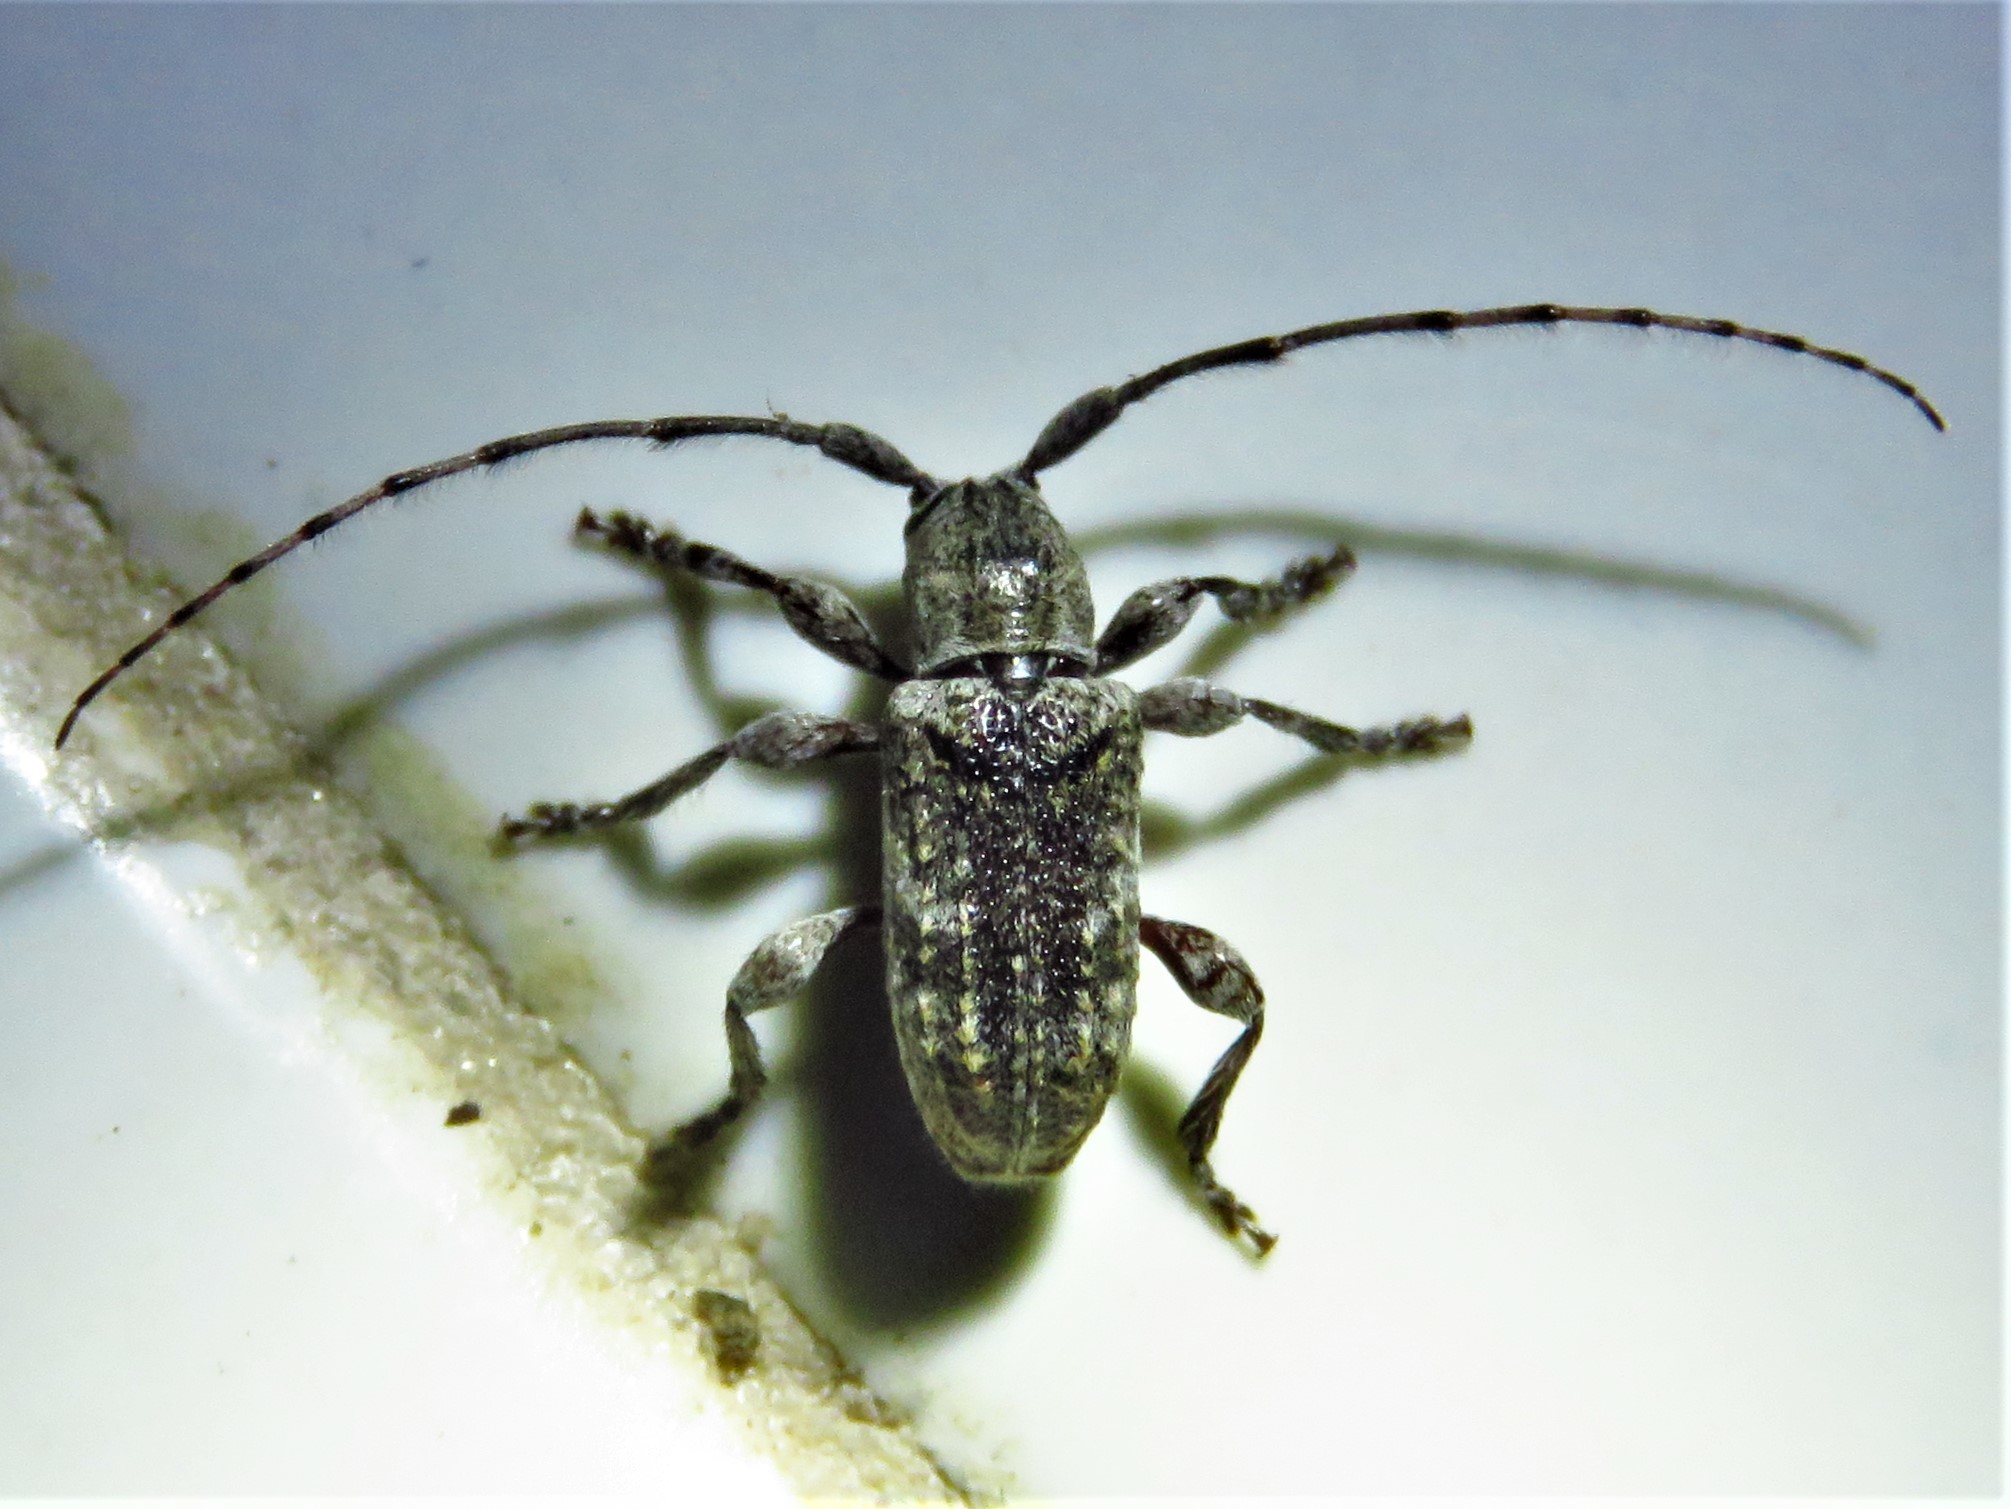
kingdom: Animalia
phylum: Arthropoda
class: Insecta
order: Coleoptera
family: Cerambycidae
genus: Ecyrus
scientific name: Ecyrus dasycerus
